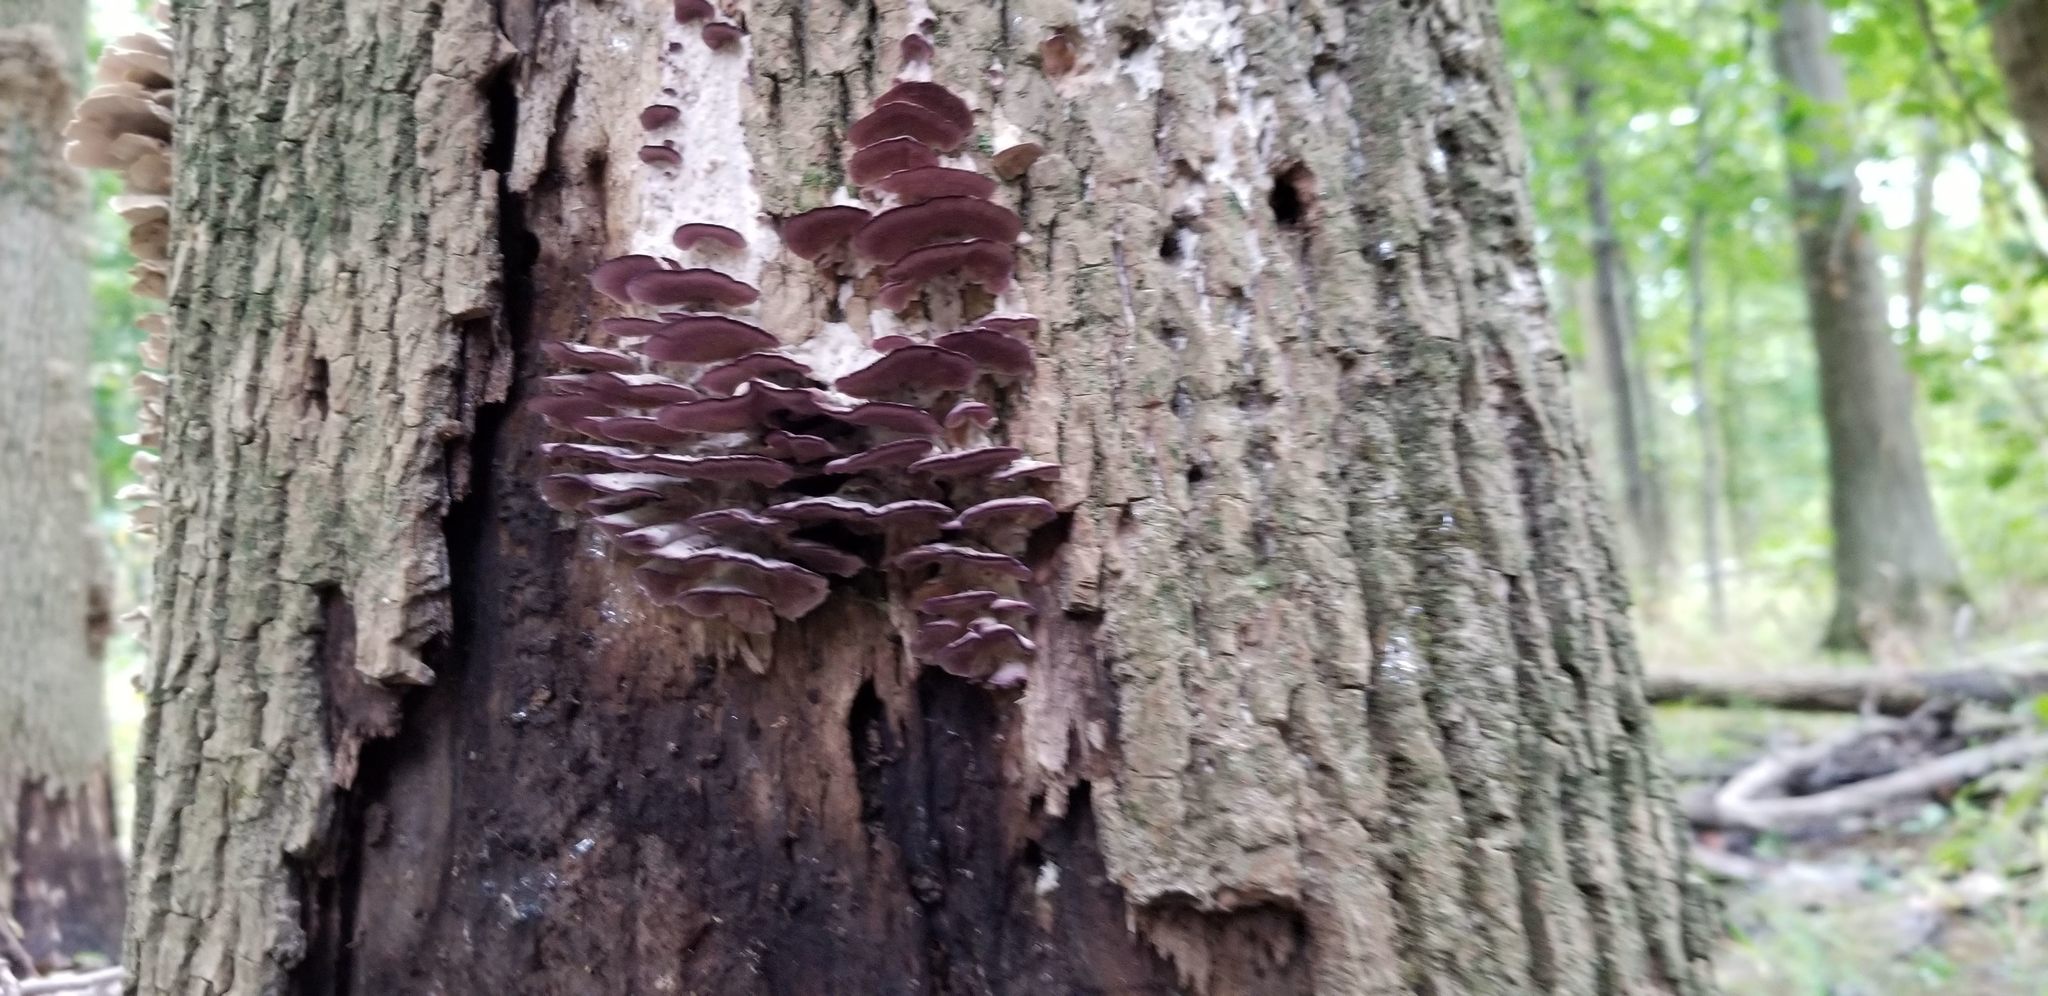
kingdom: Fungi
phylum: Basidiomycota
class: Agaricomycetes
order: Hymenochaetales
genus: Trichaptum
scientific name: Trichaptum biforme
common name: Violet-toothed polypore
